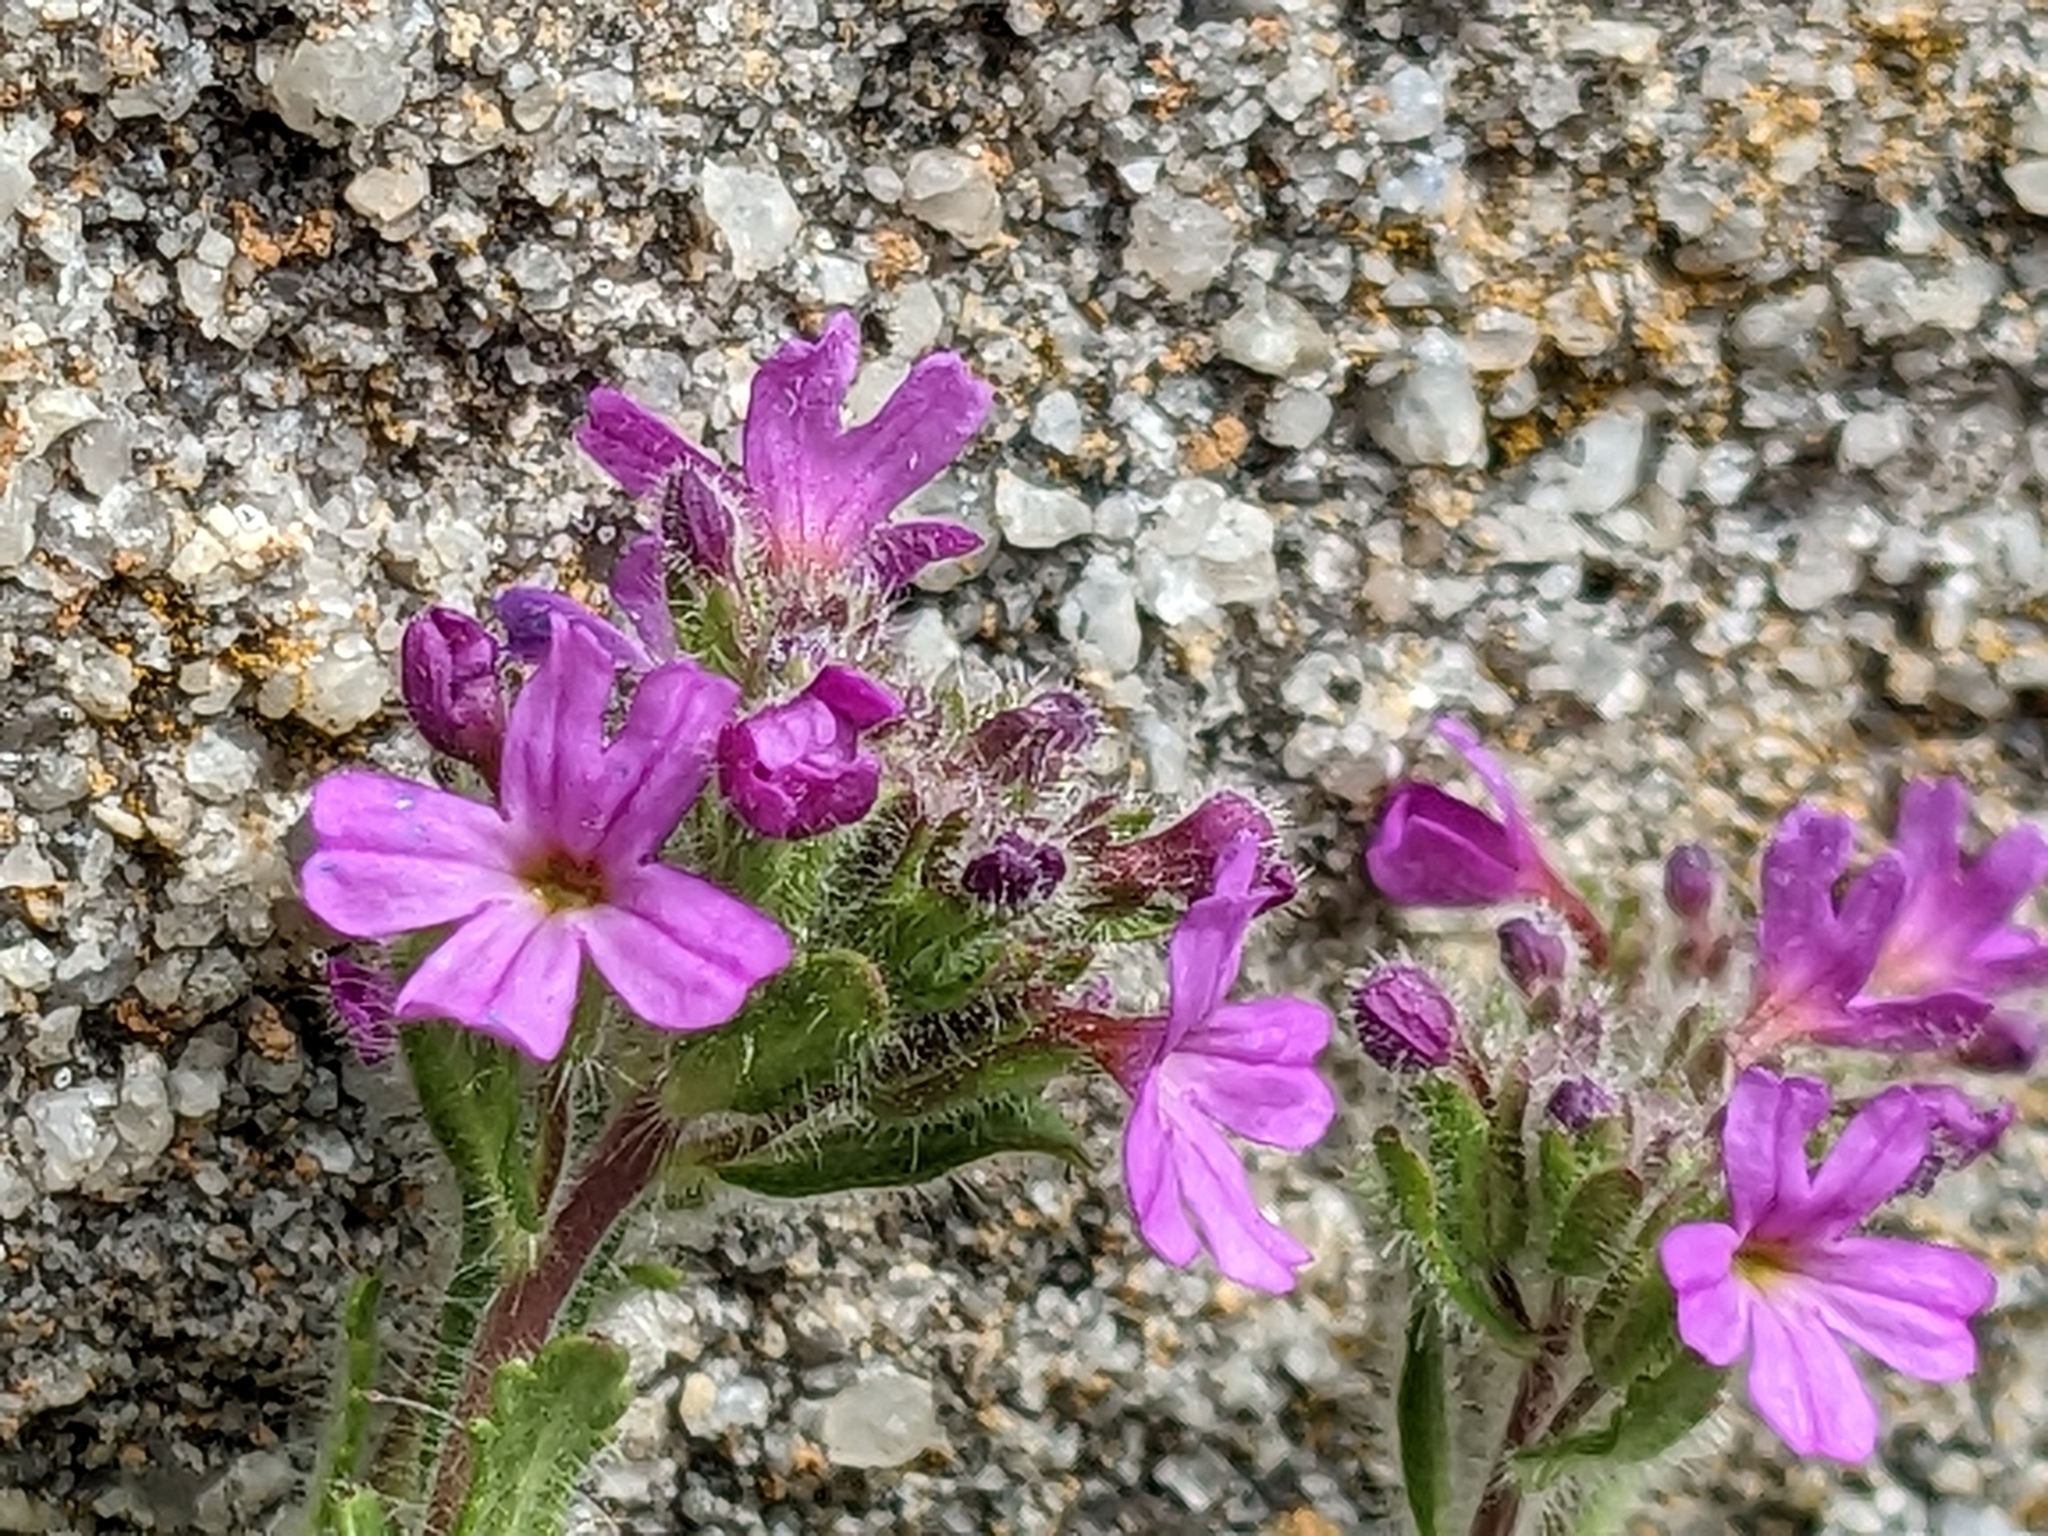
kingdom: Plantae
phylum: Tracheophyta
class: Magnoliopsida
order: Lamiales
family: Plantaginaceae
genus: Erinus
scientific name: Erinus alpinus
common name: Fairy foxglove
